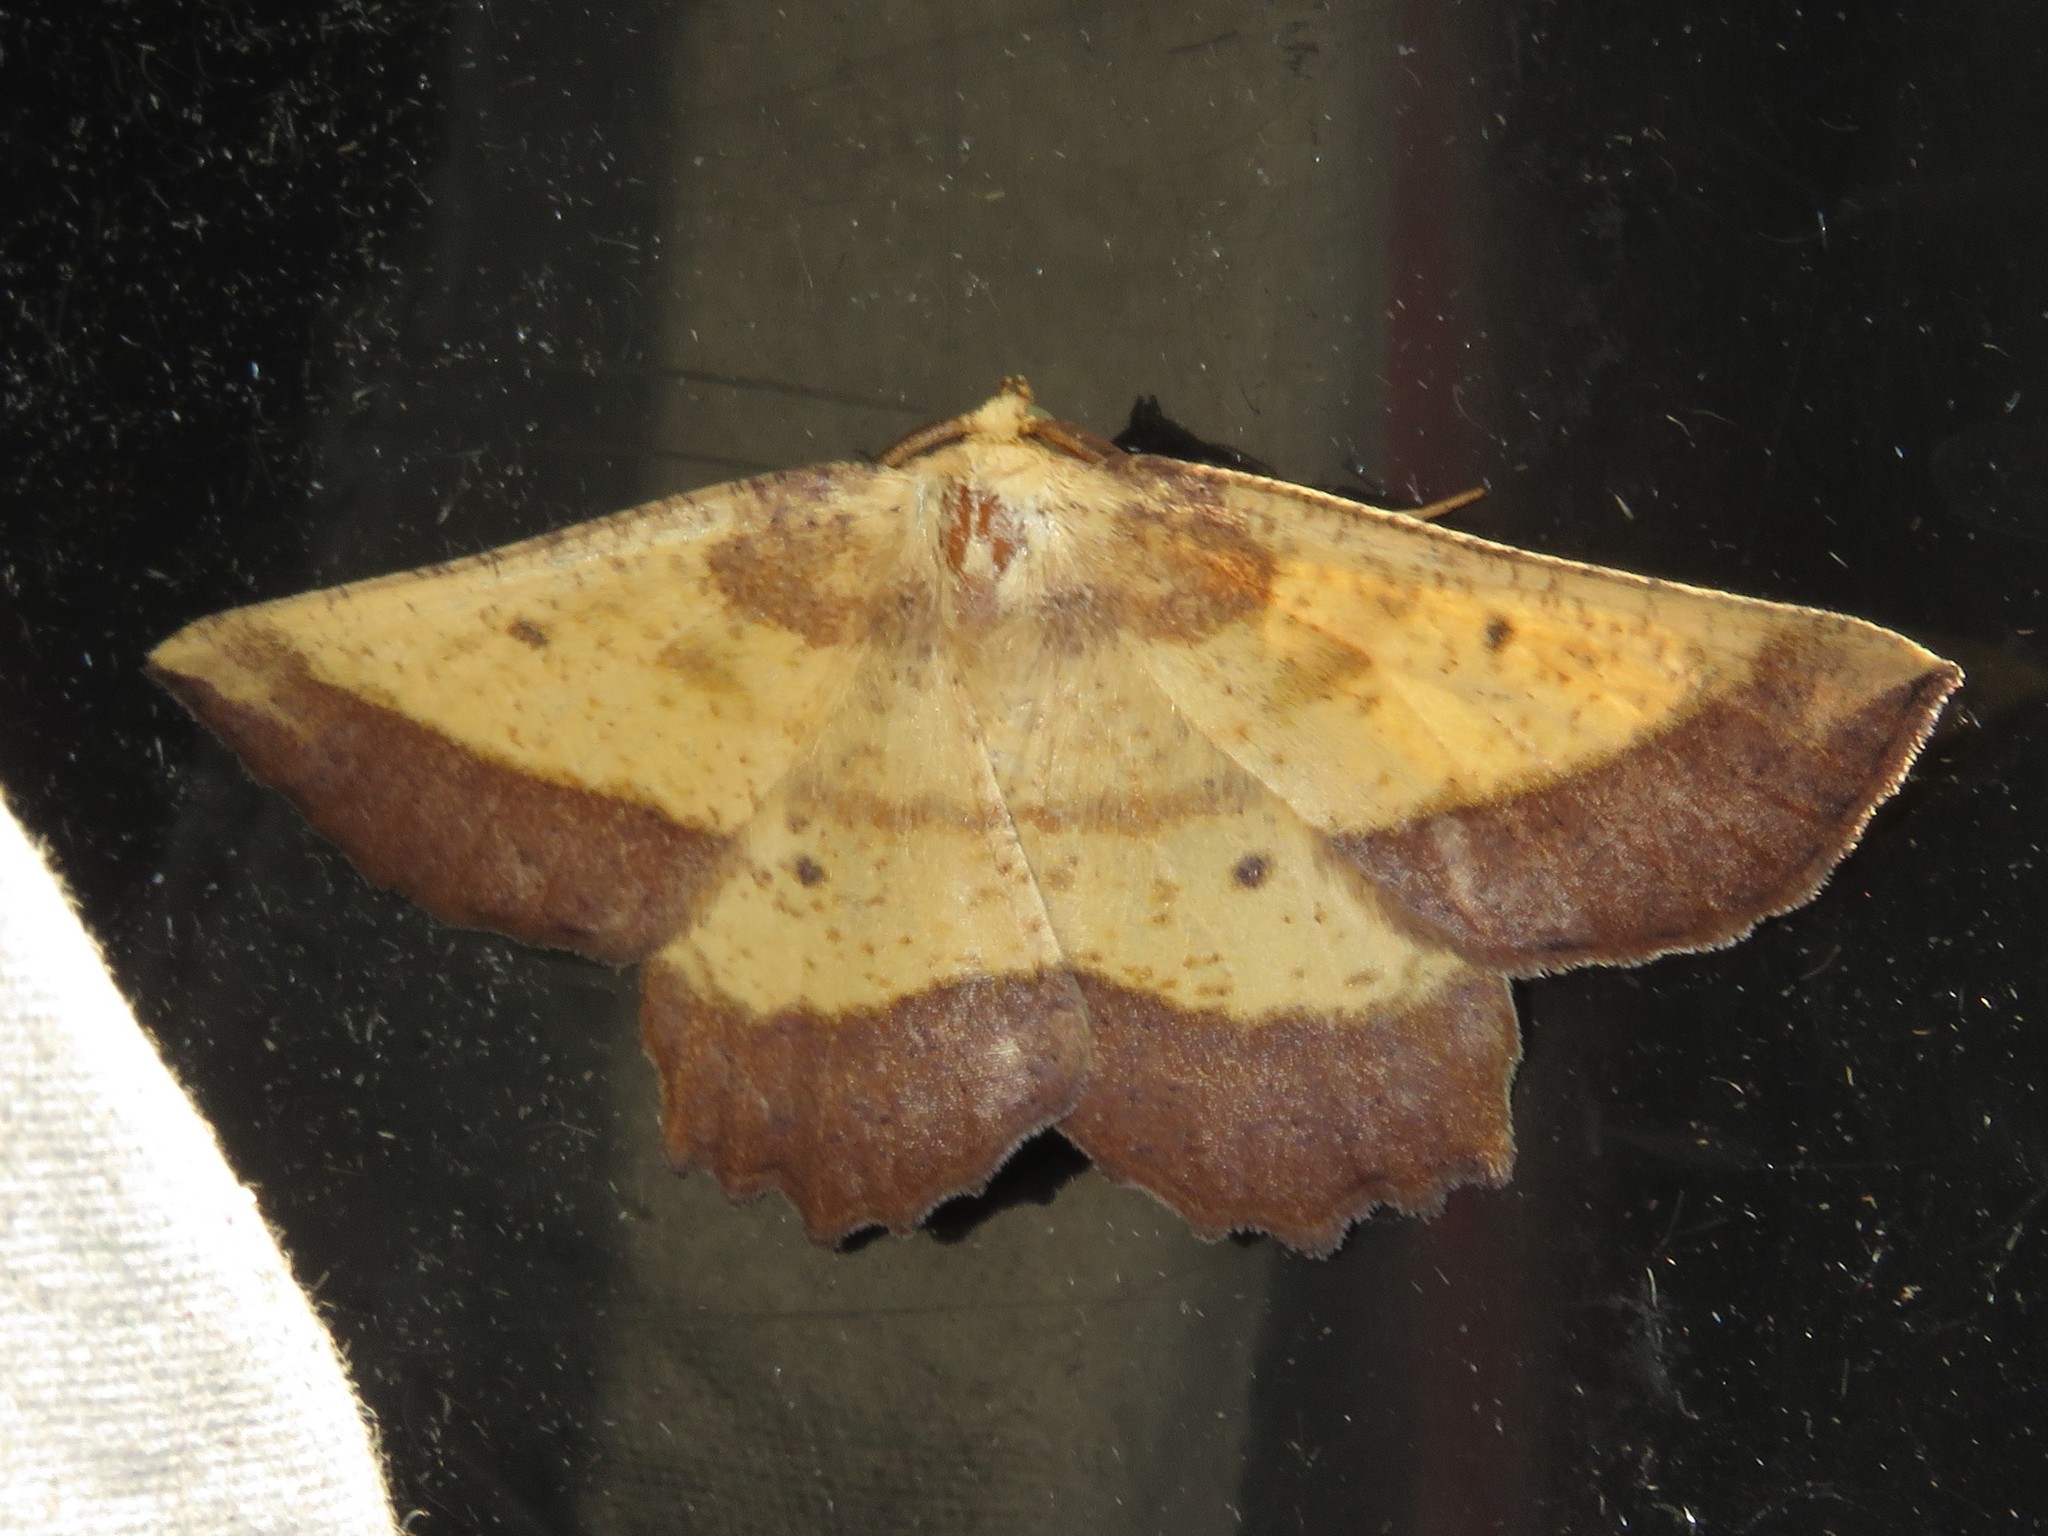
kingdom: Animalia
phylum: Arthropoda
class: Insecta
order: Lepidoptera
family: Geometridae
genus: Euchlaena
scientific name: Euchlaena serrata
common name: Saw wing
